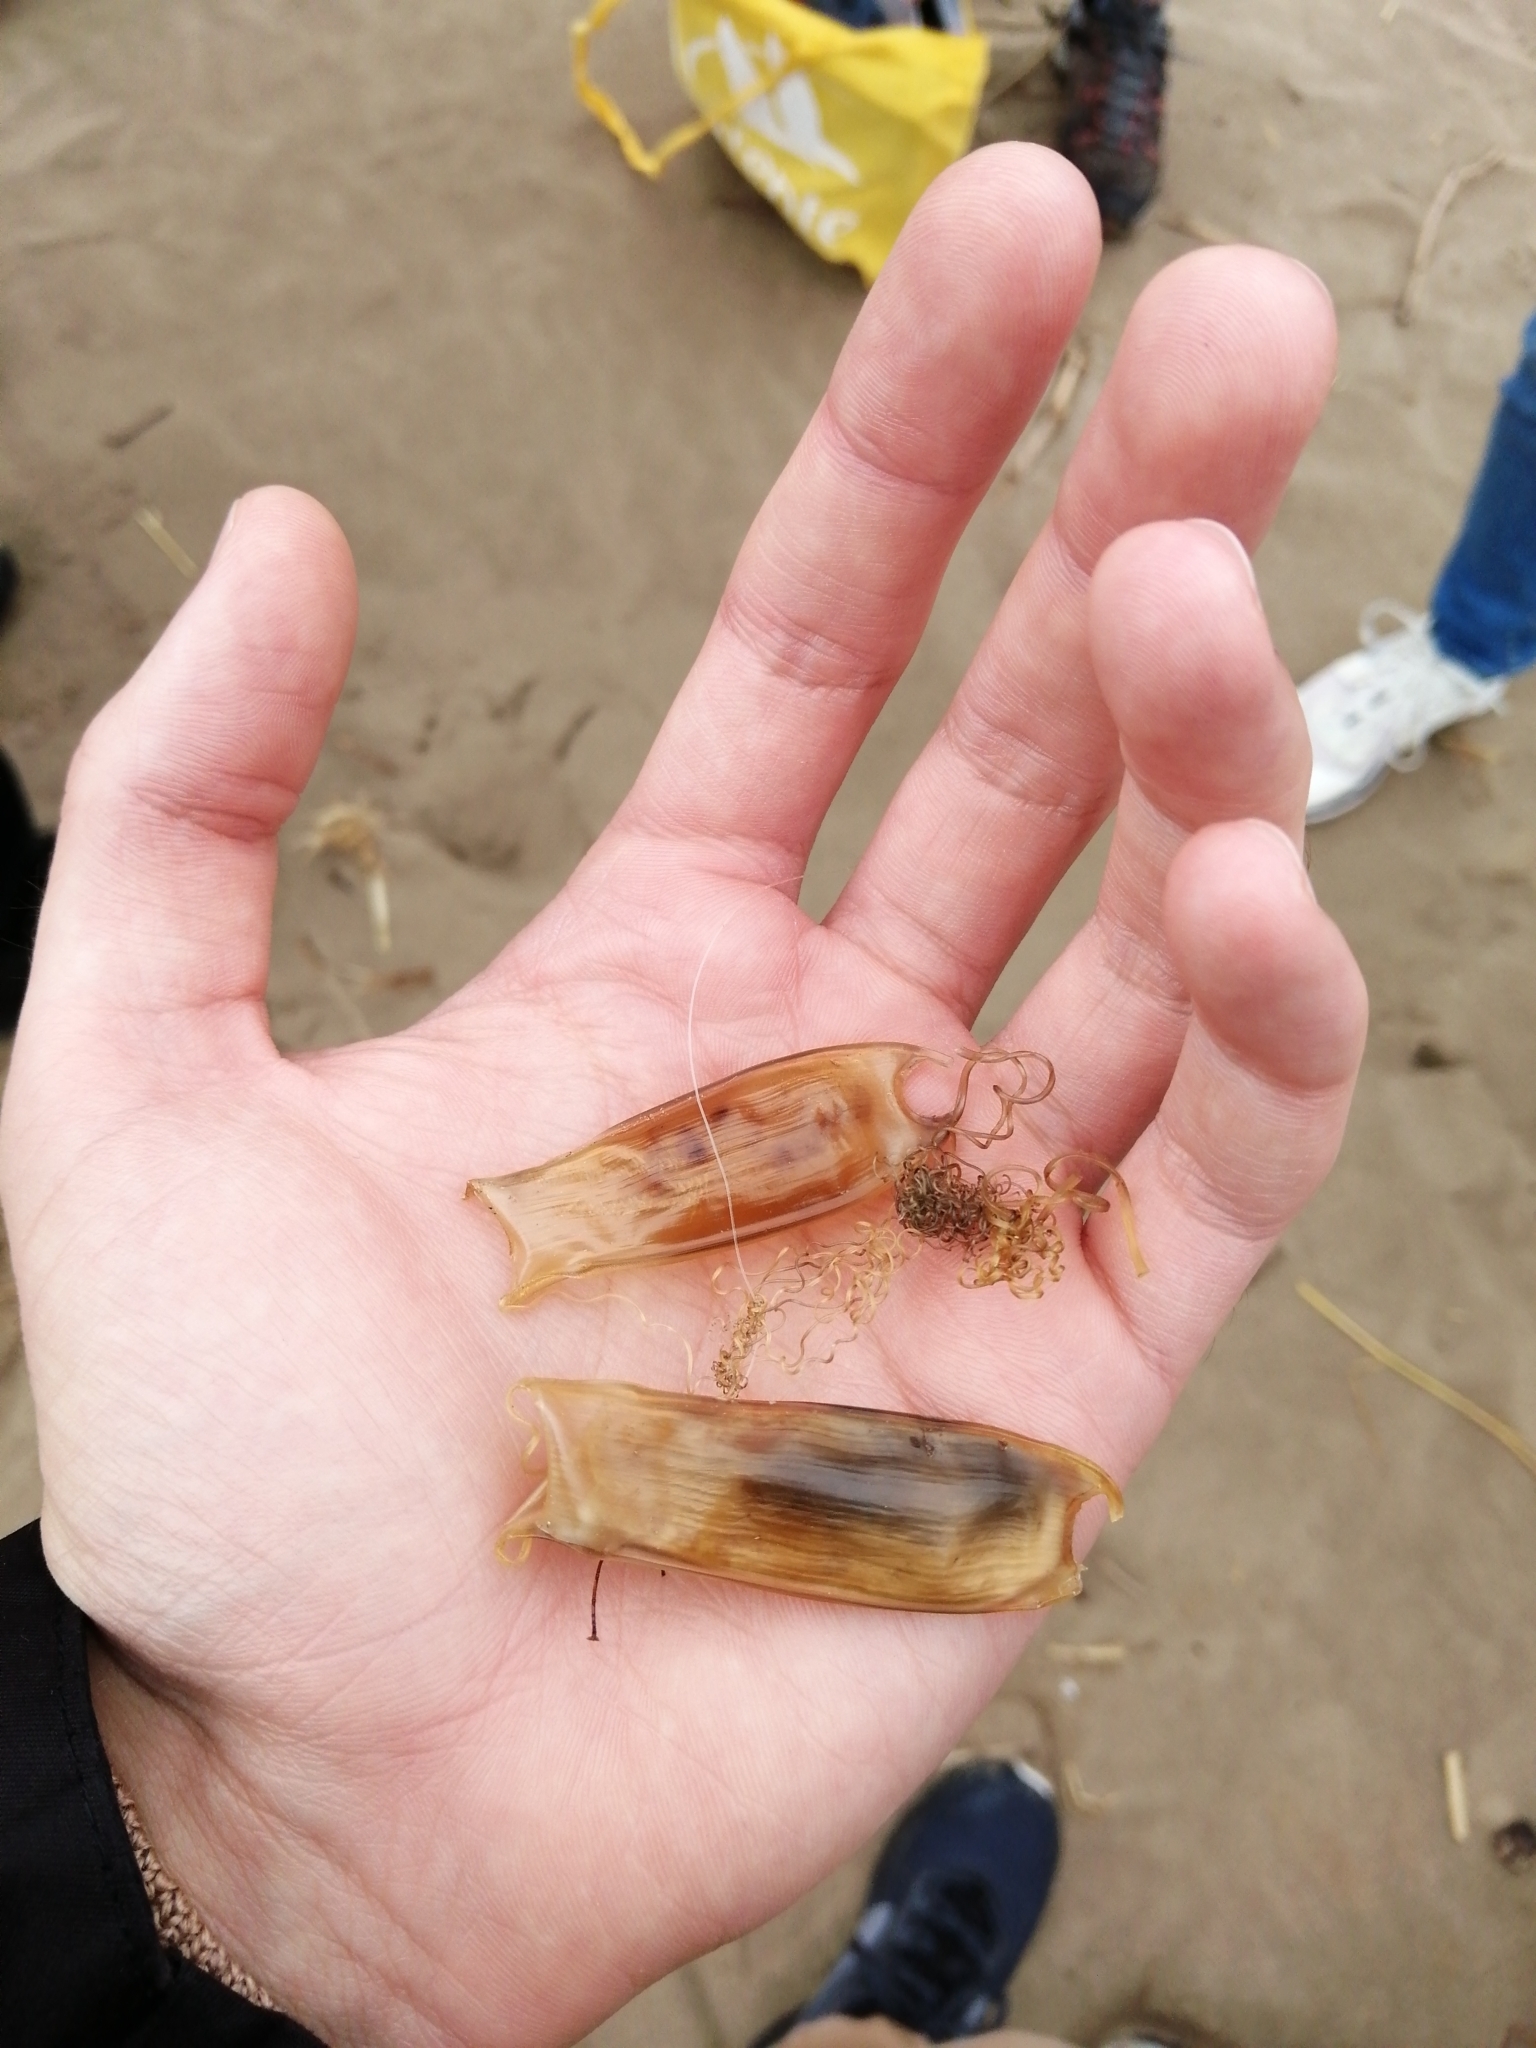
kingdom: Animalia
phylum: Chordata
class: Elasmobranchii
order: Carcharhiniformes
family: Scyliorhinidae
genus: Scyliorhinus
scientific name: Scyliorhinus canicula
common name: Lesser spotted dogfish
